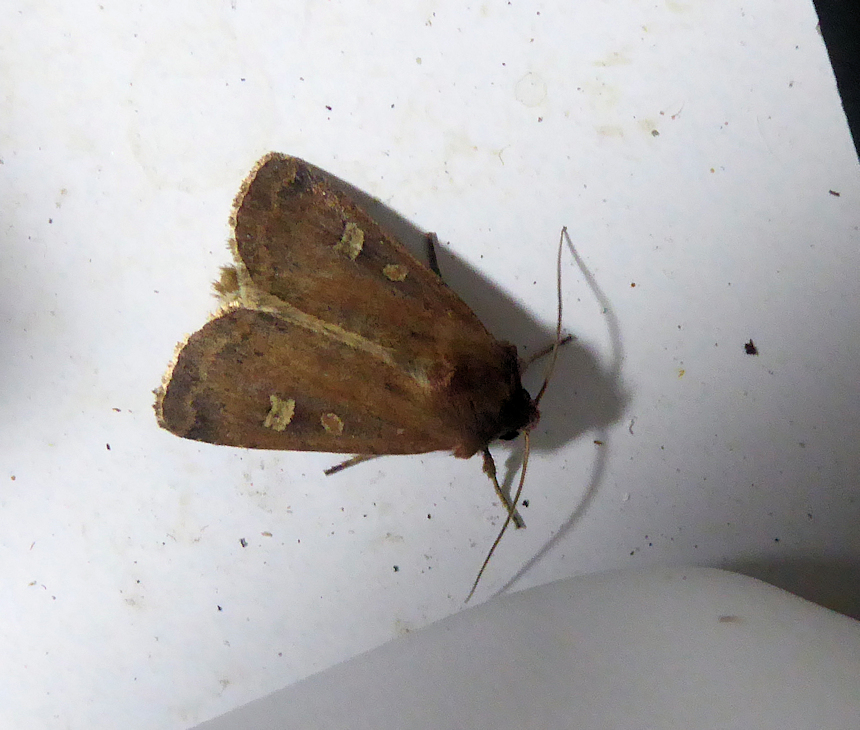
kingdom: Animalia
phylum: Arthropoda
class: Insecta
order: Lepidoptera
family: Noctuidae
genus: Xestia
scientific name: Xestia xanthographa
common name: Square-spot rustic
